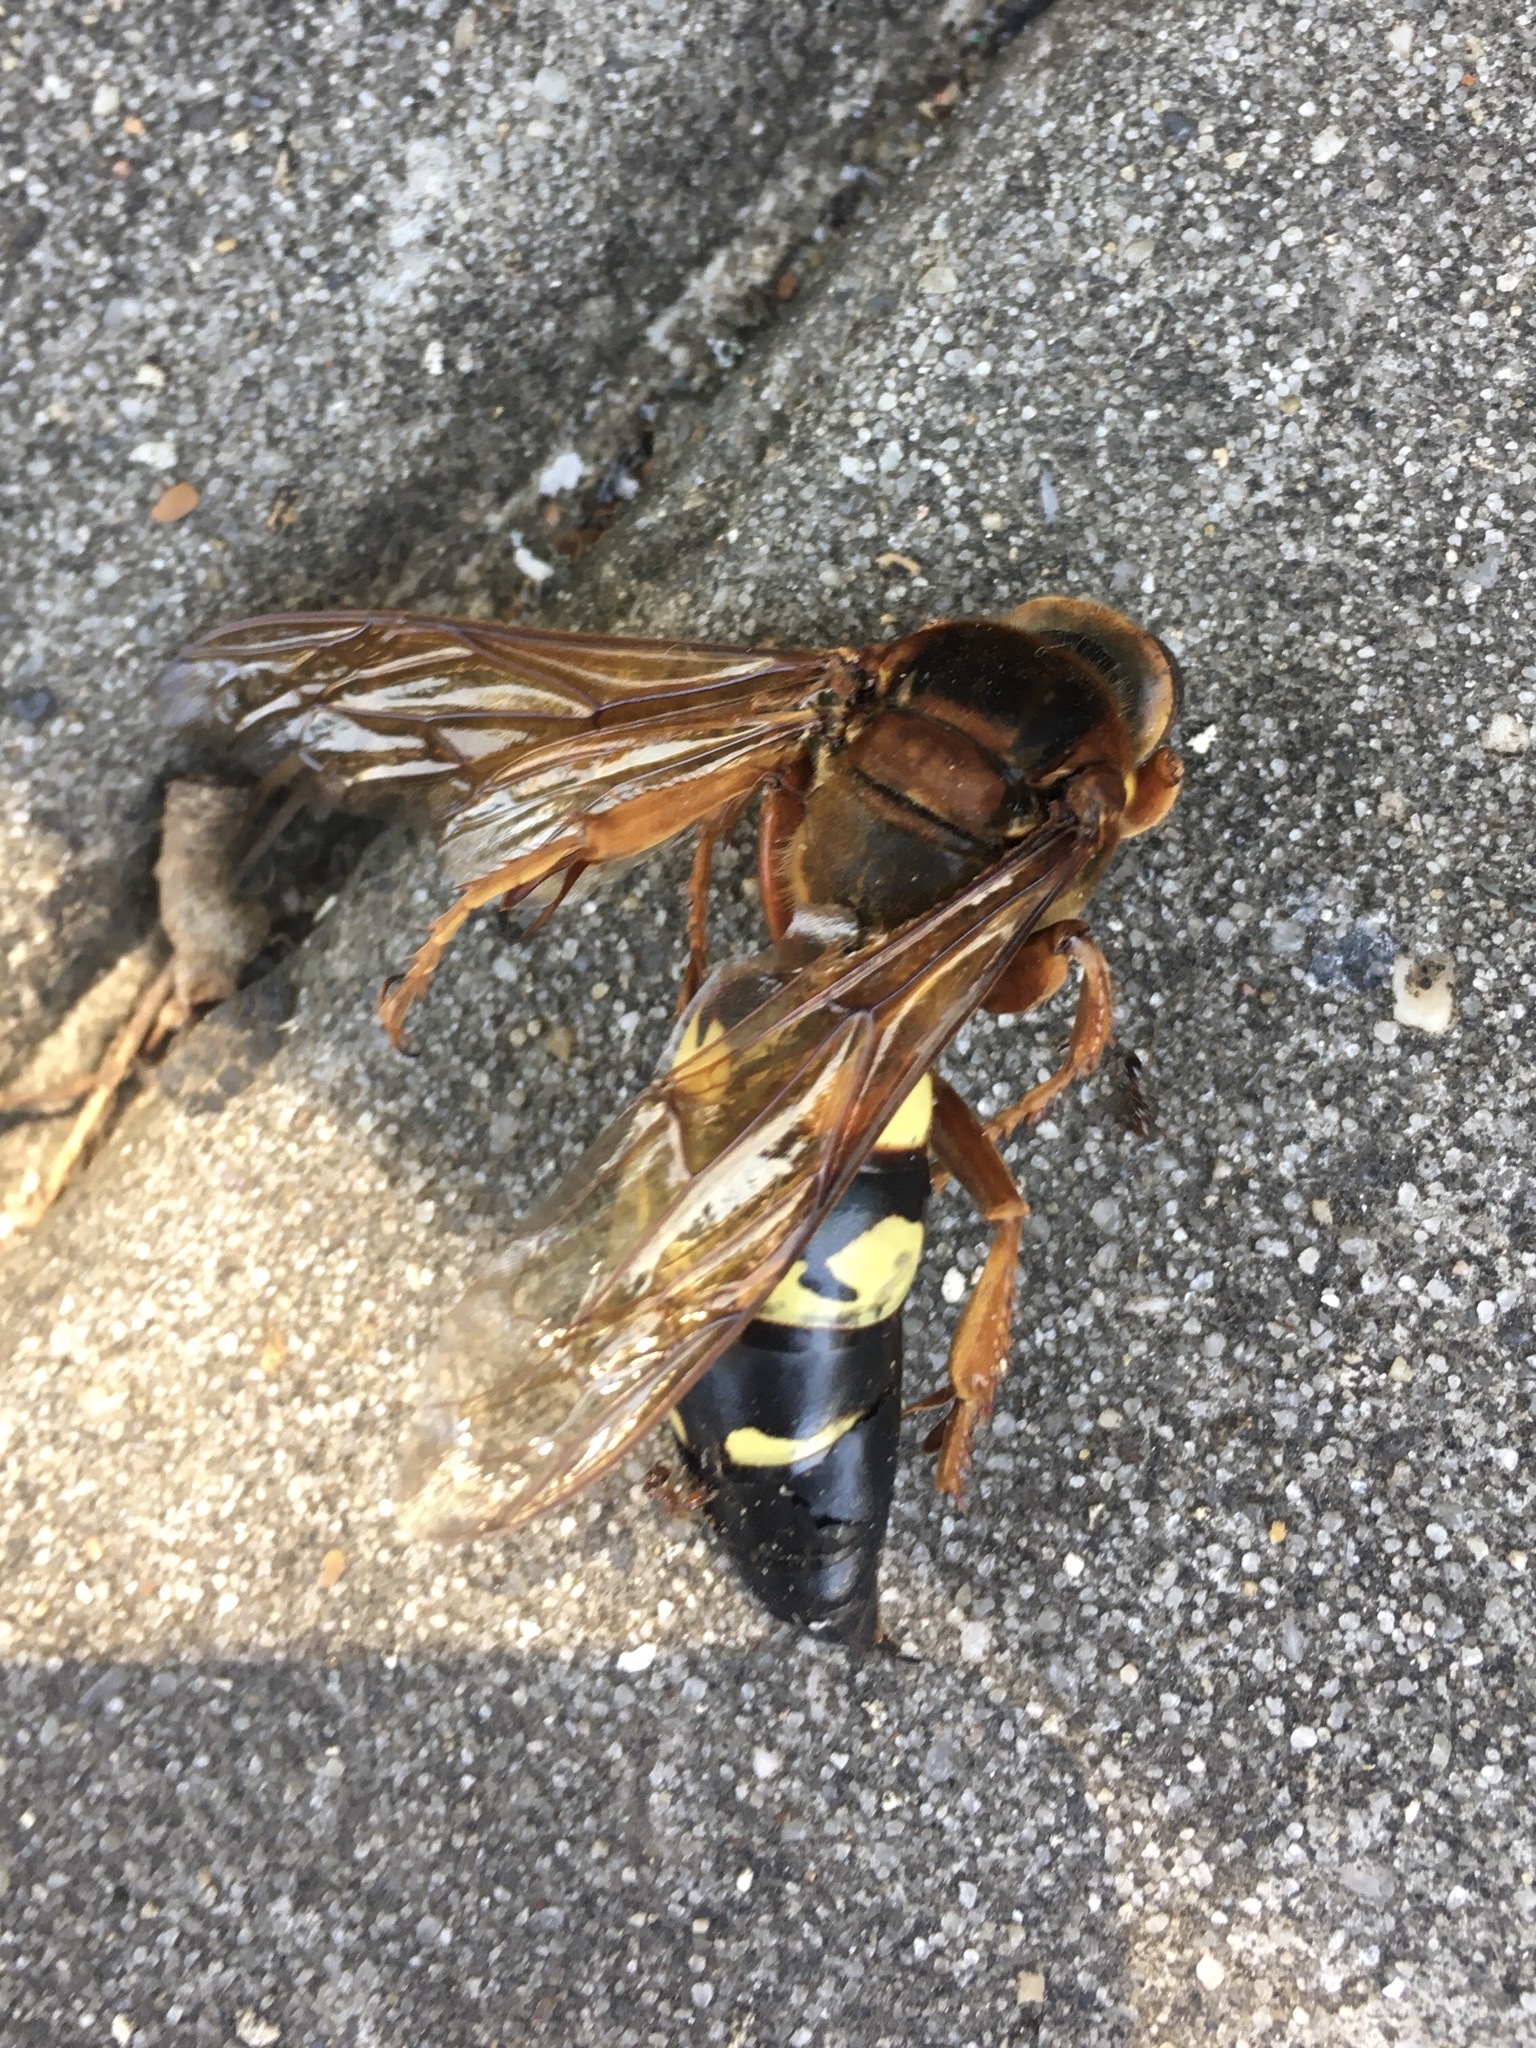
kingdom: Animalia
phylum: Arthropoda
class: Insecta
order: Hymenoptera
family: Crabronidae
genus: Sphecius
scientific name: Sphecius speciosus
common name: Cicada killer
